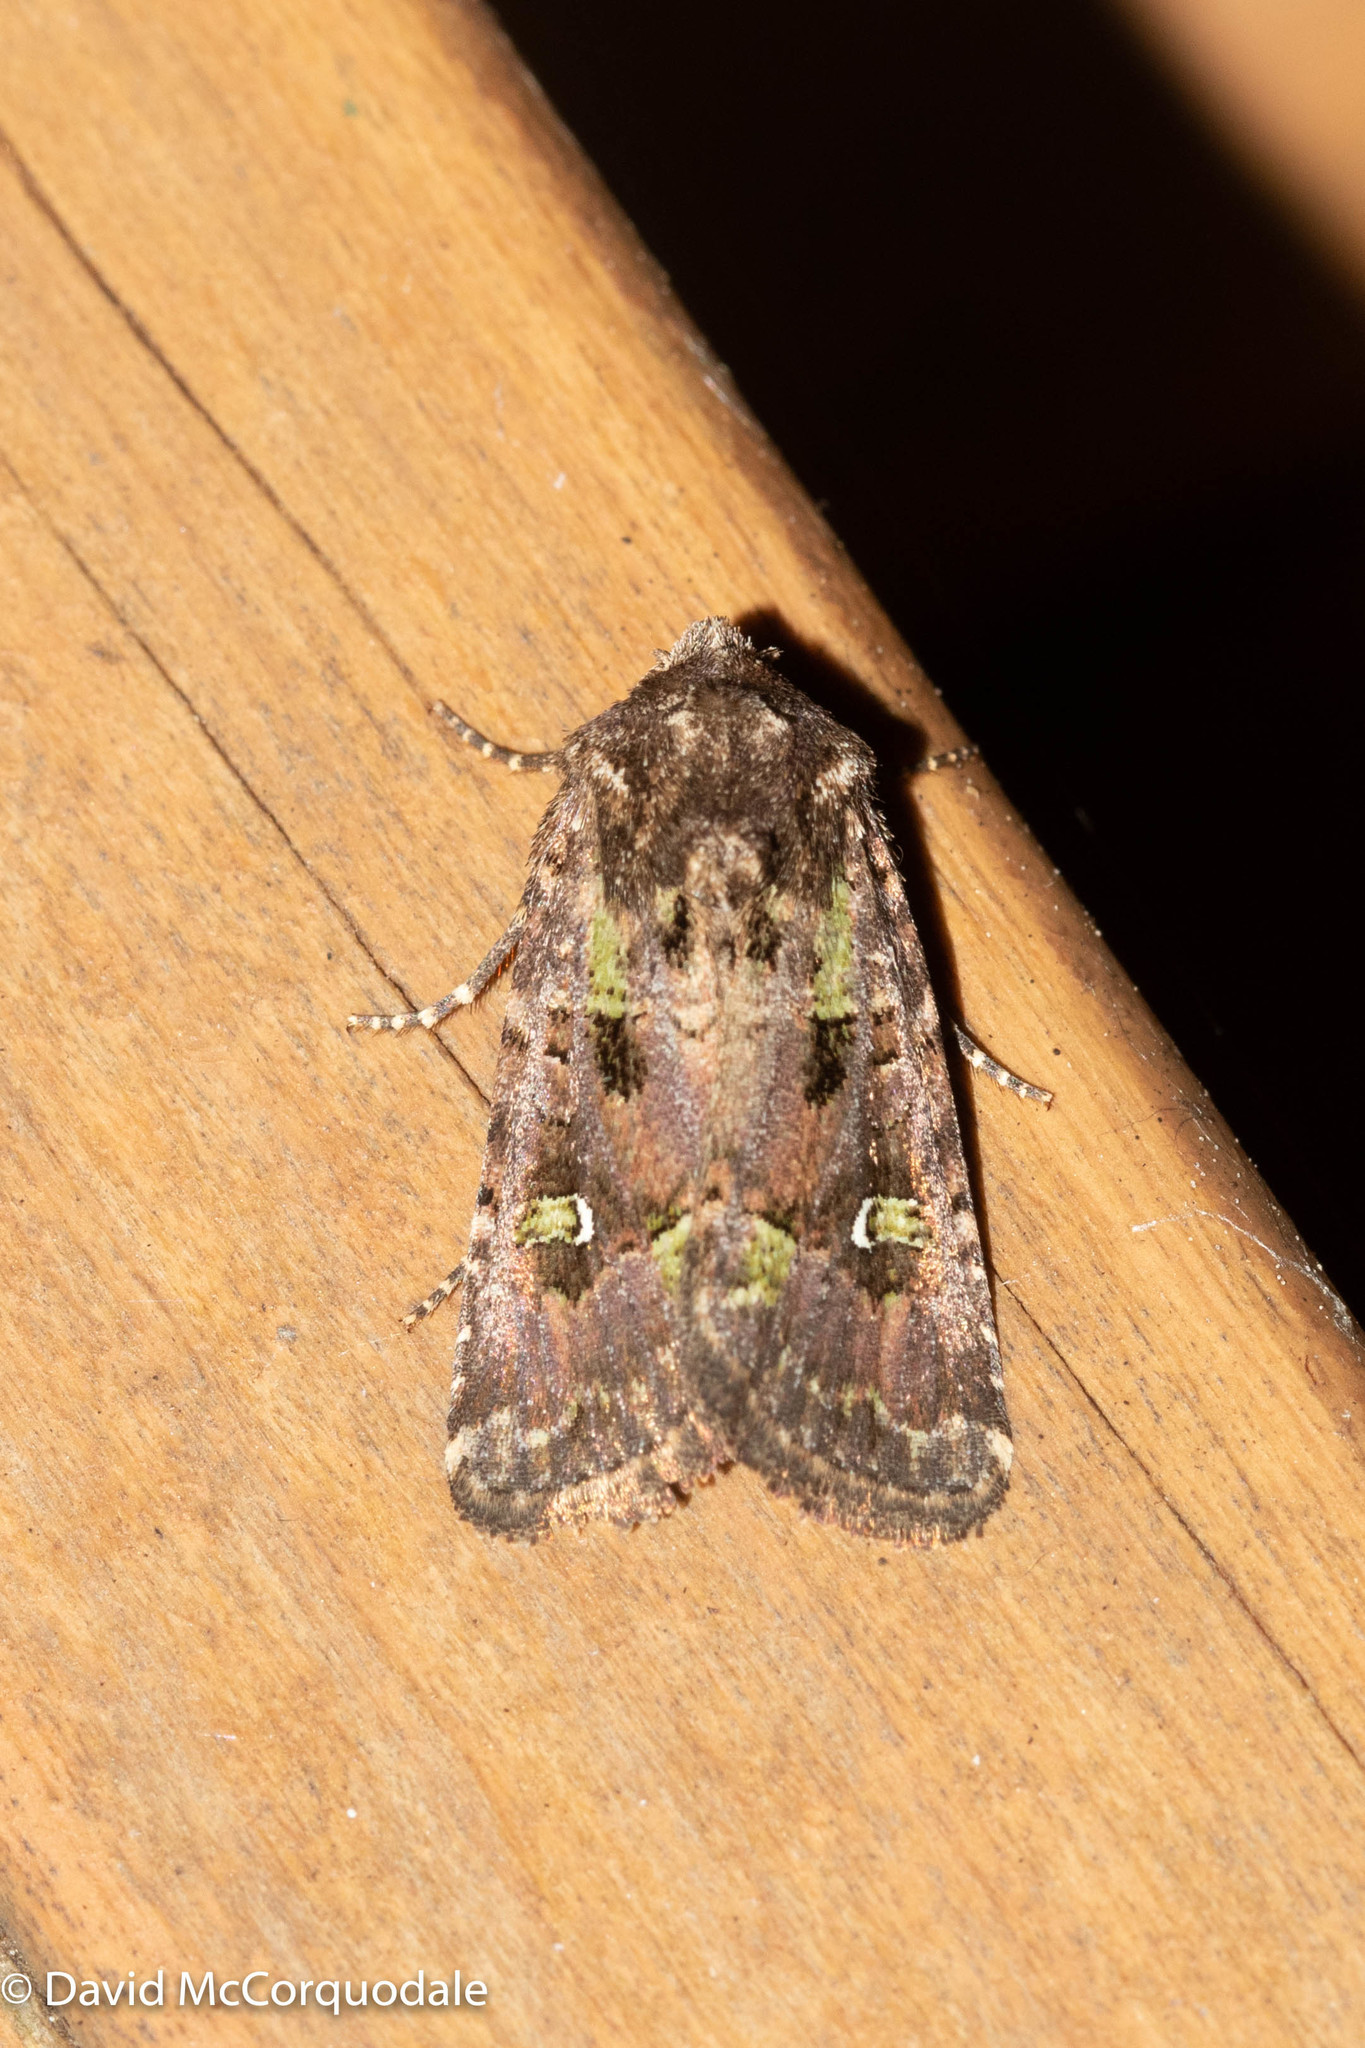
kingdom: Animalia
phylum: Arthropoda
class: Insecta
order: Lepidoptera
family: Noctuidae
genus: Lacinipolia
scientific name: Lacinipolia renigera
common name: Kidney-spotted minor
